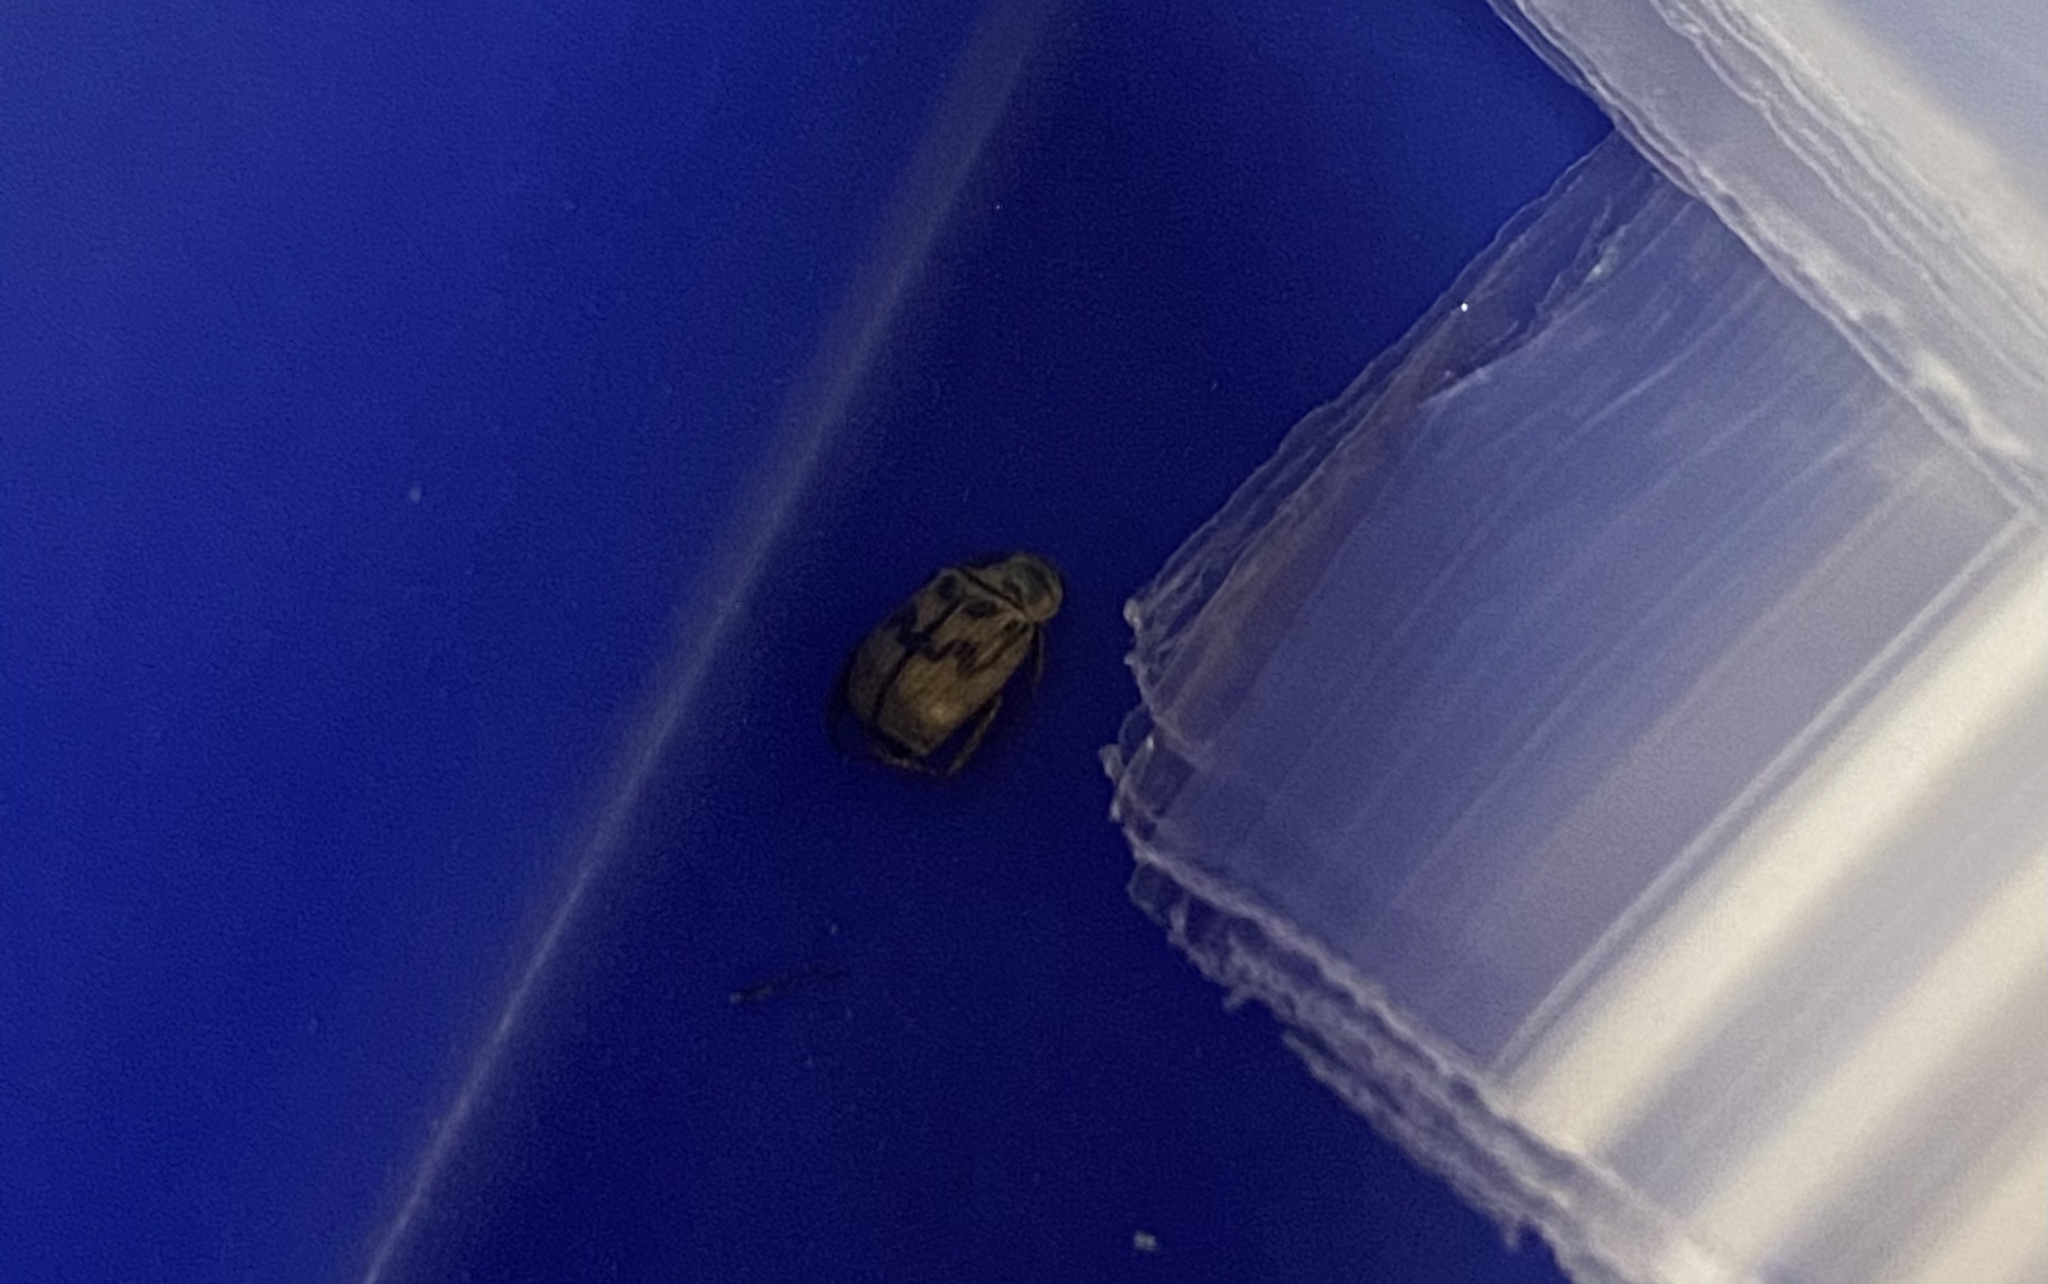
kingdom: Animalia
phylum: Arthropoda
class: Insecta
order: Coleoptera
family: Scarabaeidae
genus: Exomala
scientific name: Exomala orientalis
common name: Oriental beetle
